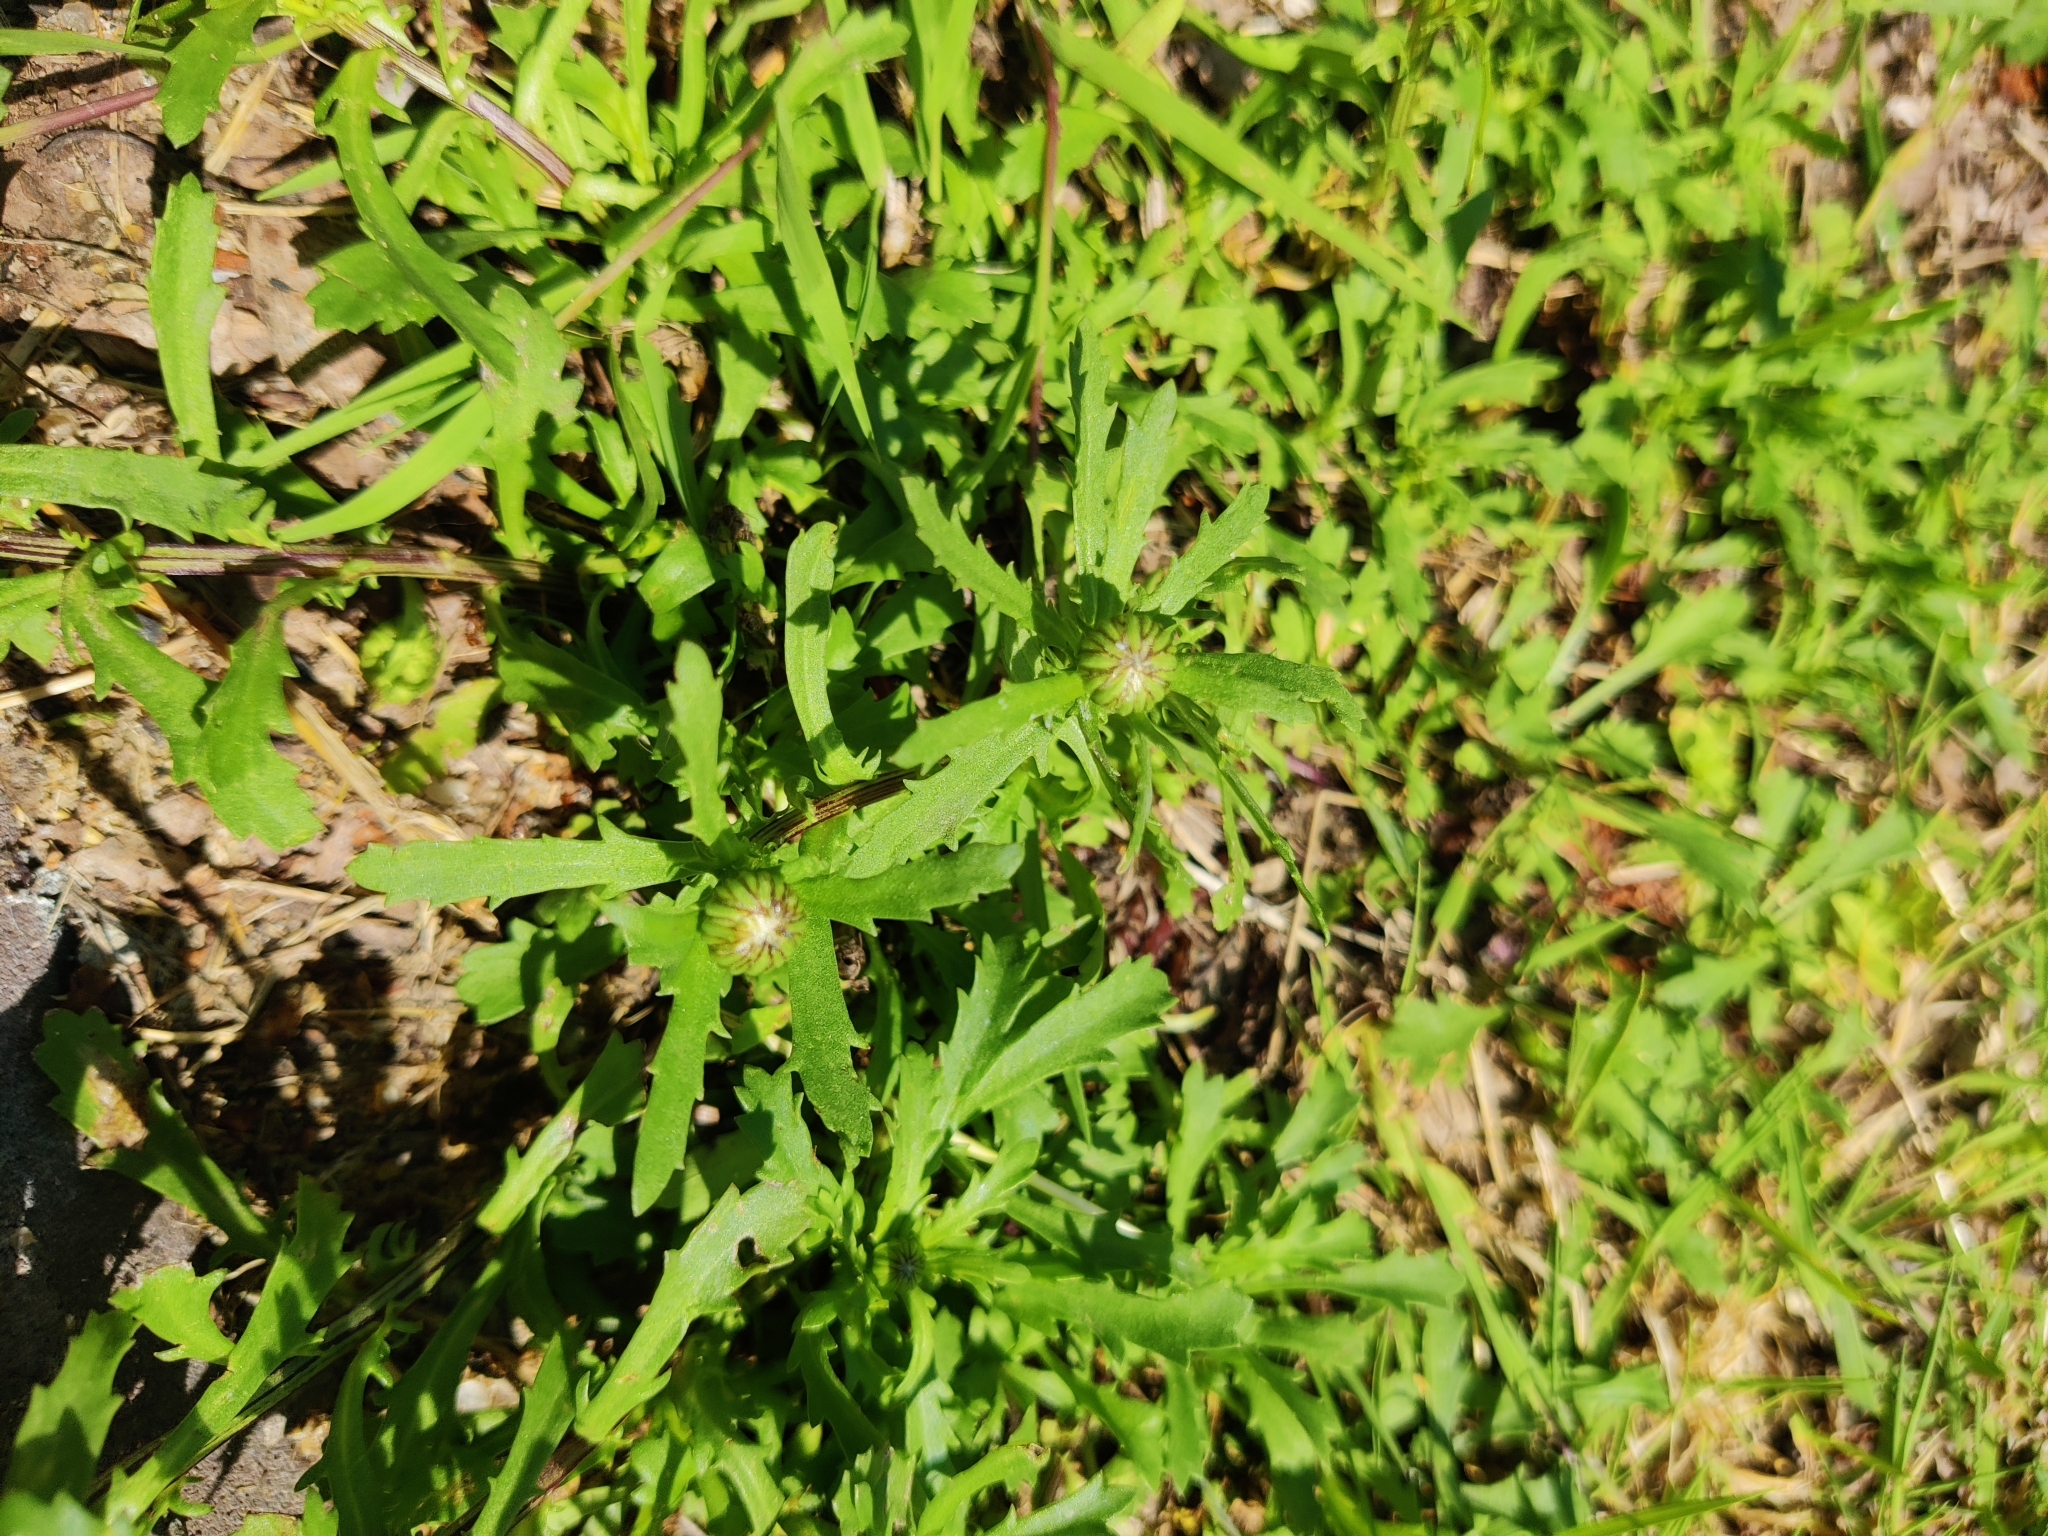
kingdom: Plantae
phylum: Tracheophyta
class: Magnoliopsida
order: Asterales
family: Asteraceae
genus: Leucanthemum
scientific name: Leucanthemum vulgare
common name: Oxeye daisy
